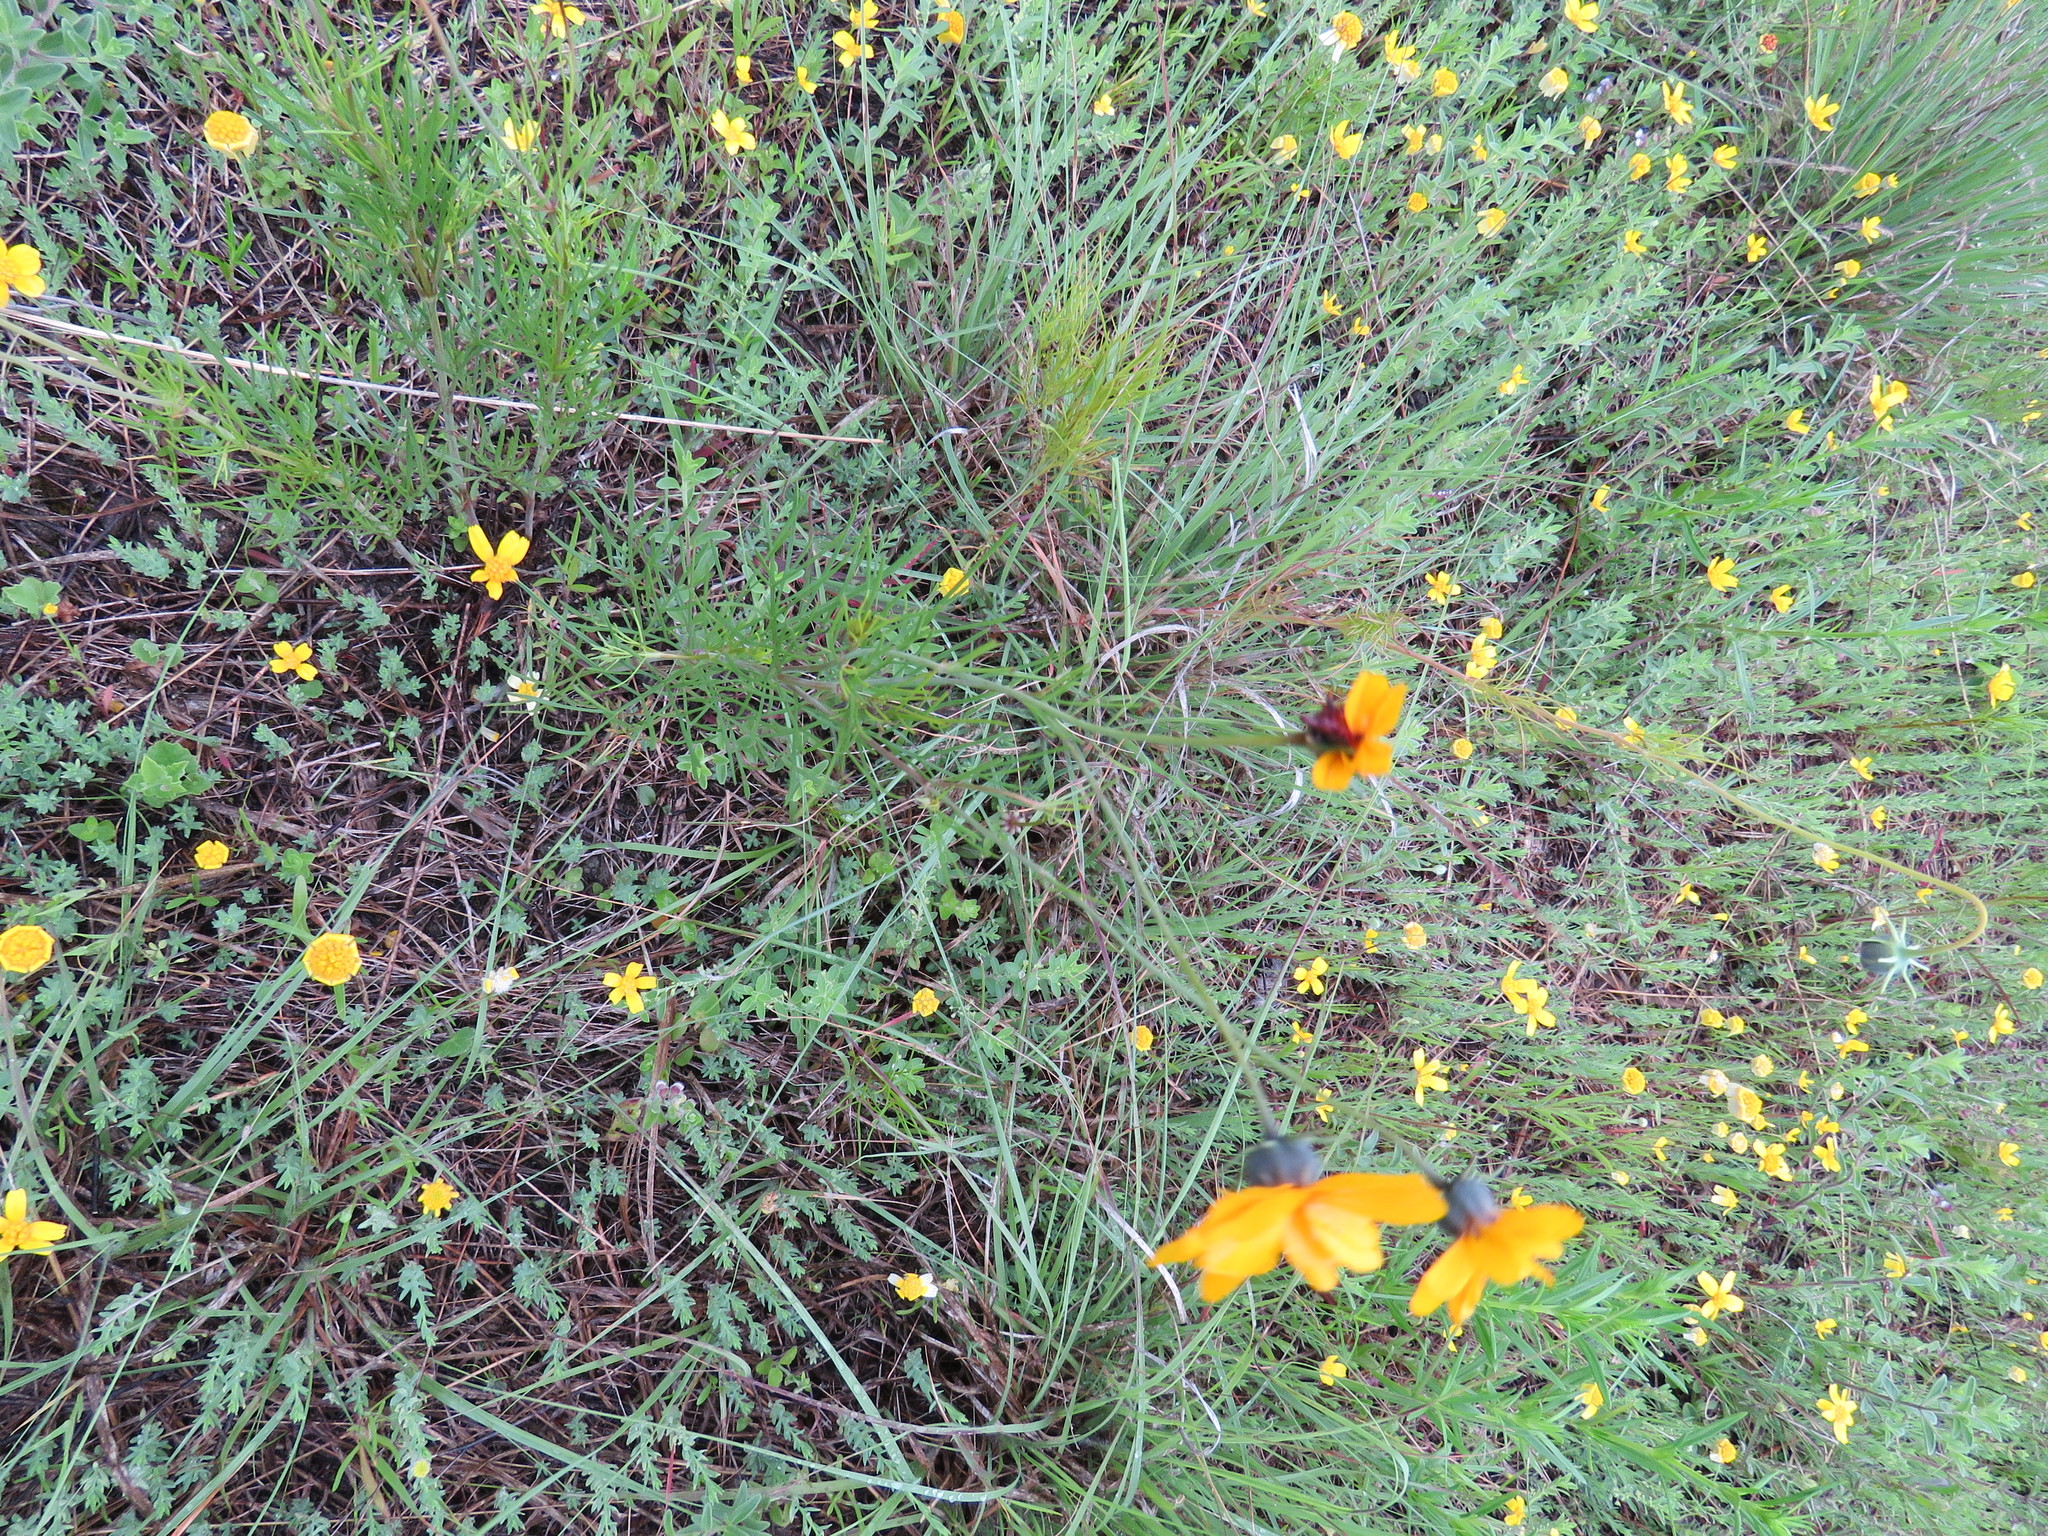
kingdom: Plantae
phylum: Tracheophyta
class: Magnoliopsida
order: Asterales
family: Asteraceae
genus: Thelesperma
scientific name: Thelesperma filifolium
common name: Stiff greenthread
